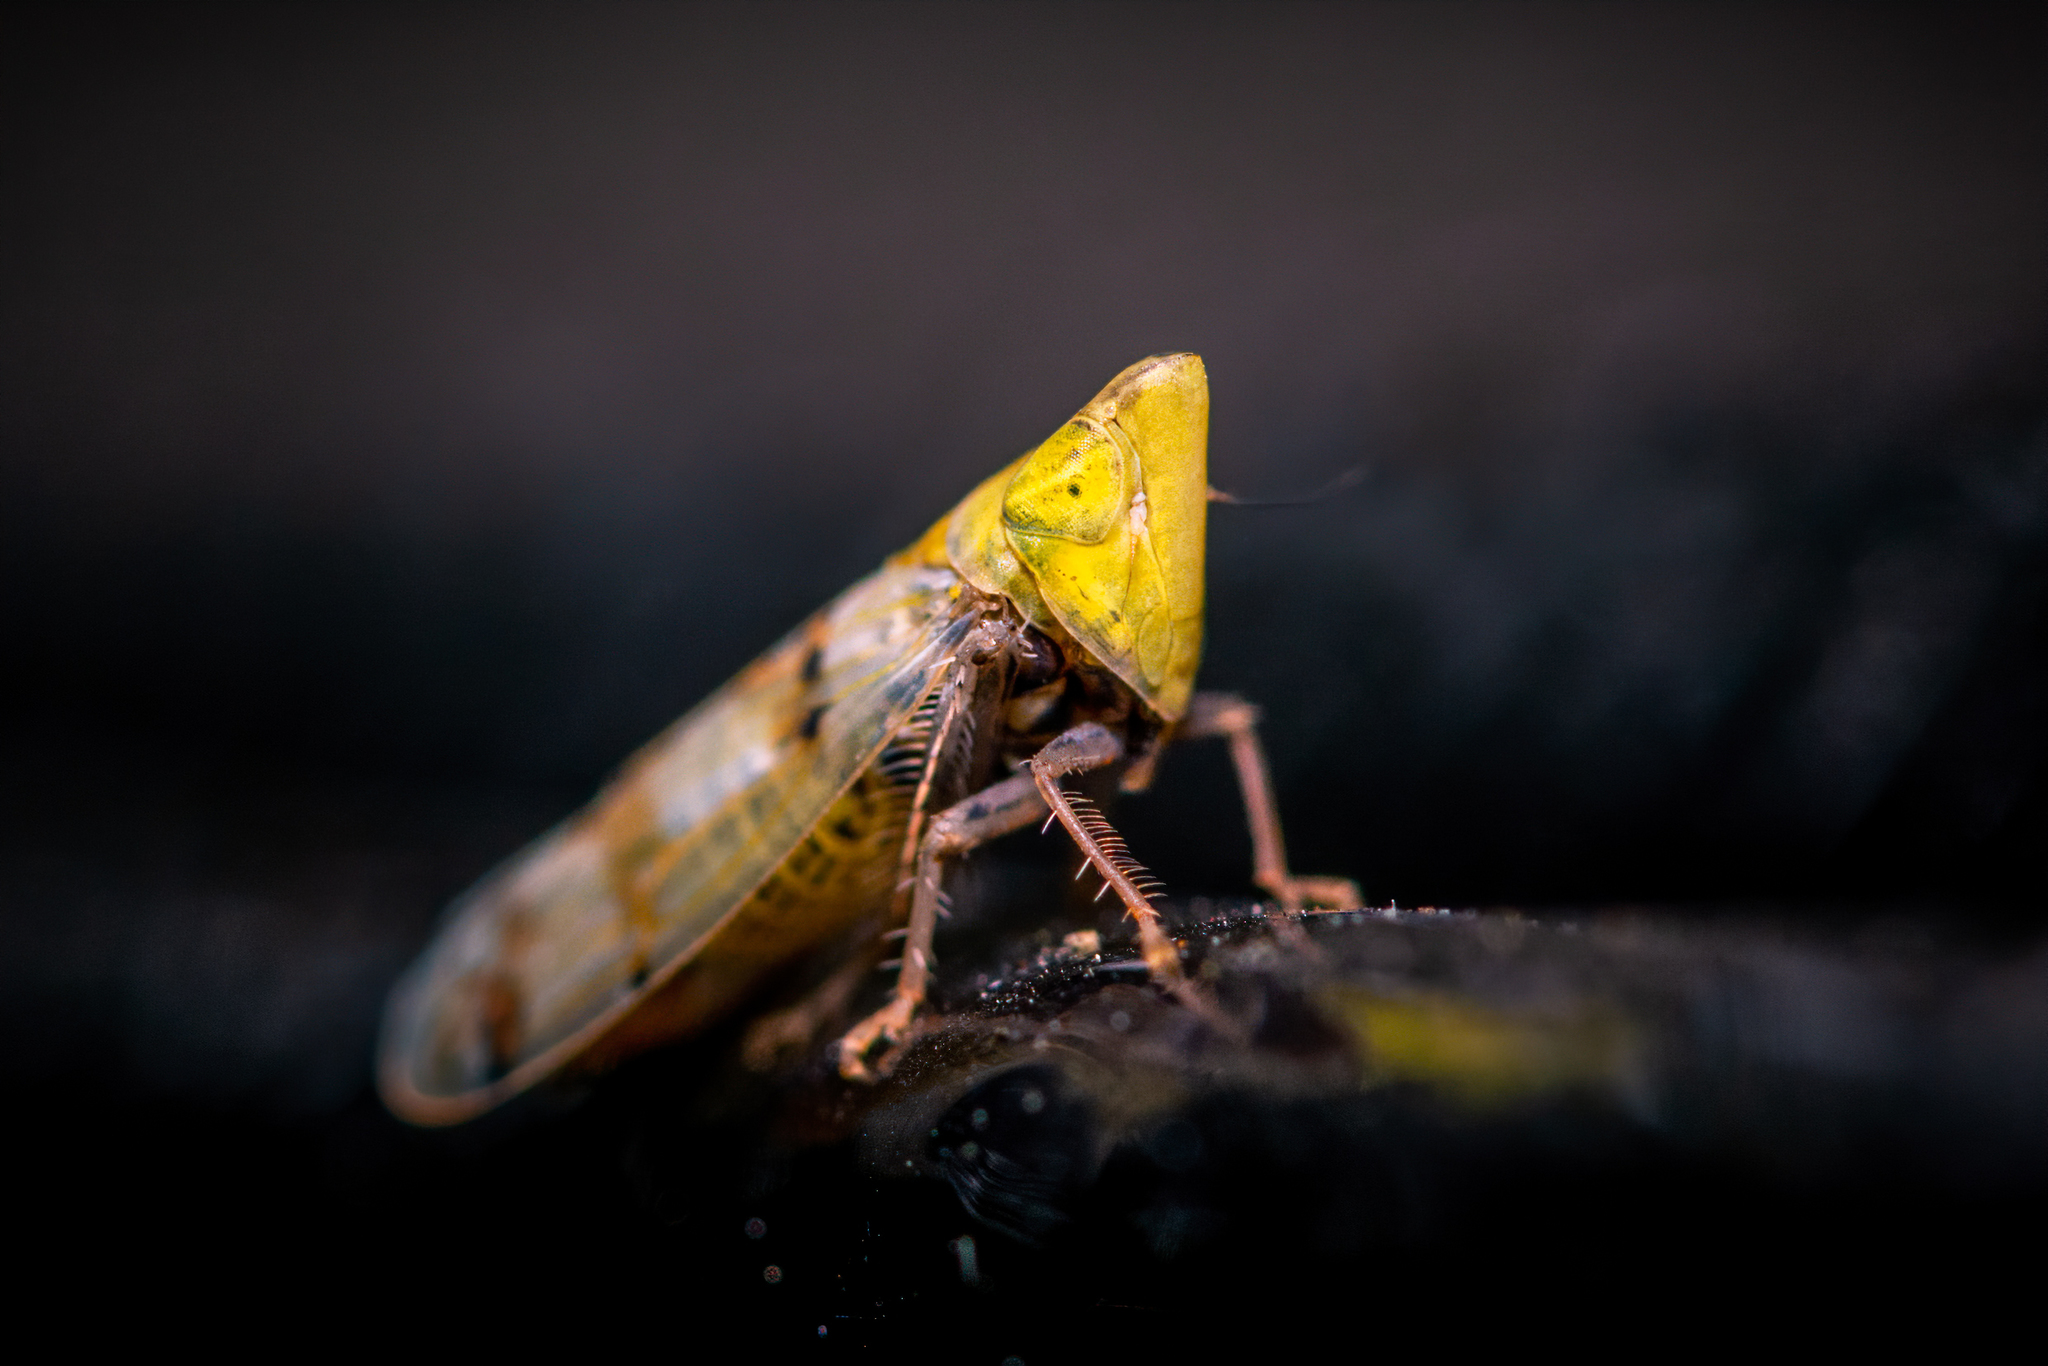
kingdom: Animalia
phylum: Arthropoda
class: Insecta
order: Hemiptera
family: Cicadellidae
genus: Japananus
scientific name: Japananus hyalinus
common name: The japanese maple leafhopper
